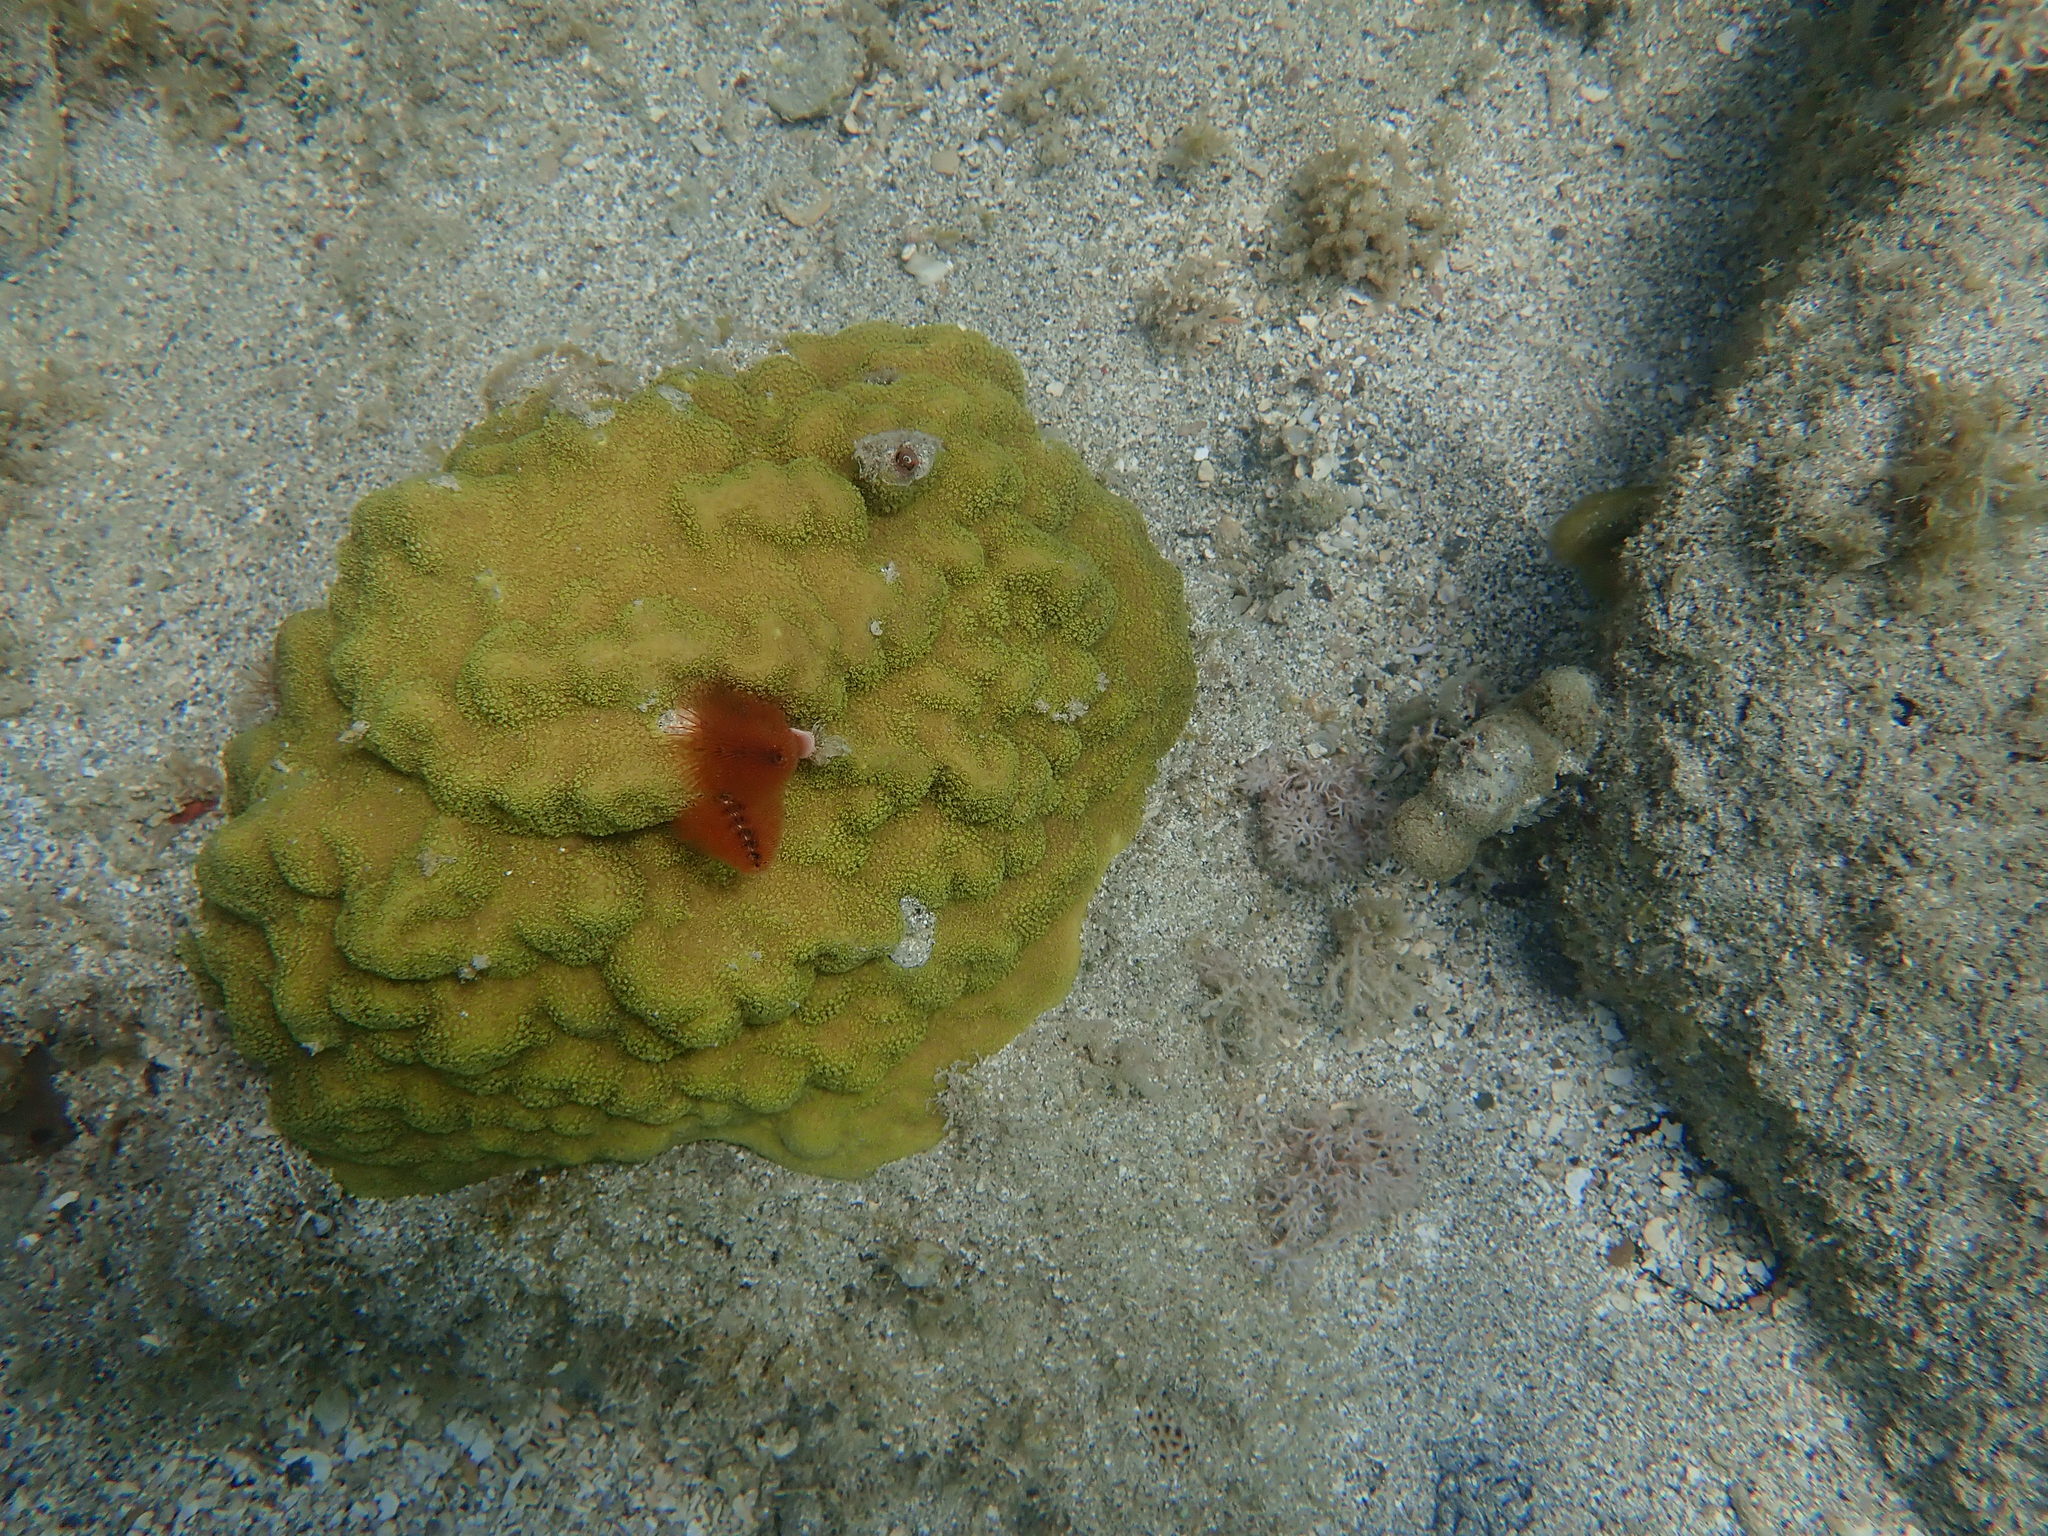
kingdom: Animalia
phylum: Annelida
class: Polychaeta
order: Sabellida
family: Serpulidae
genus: Spirobranchus
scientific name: Spirobranchus giganteus
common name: Christmas tree worm
